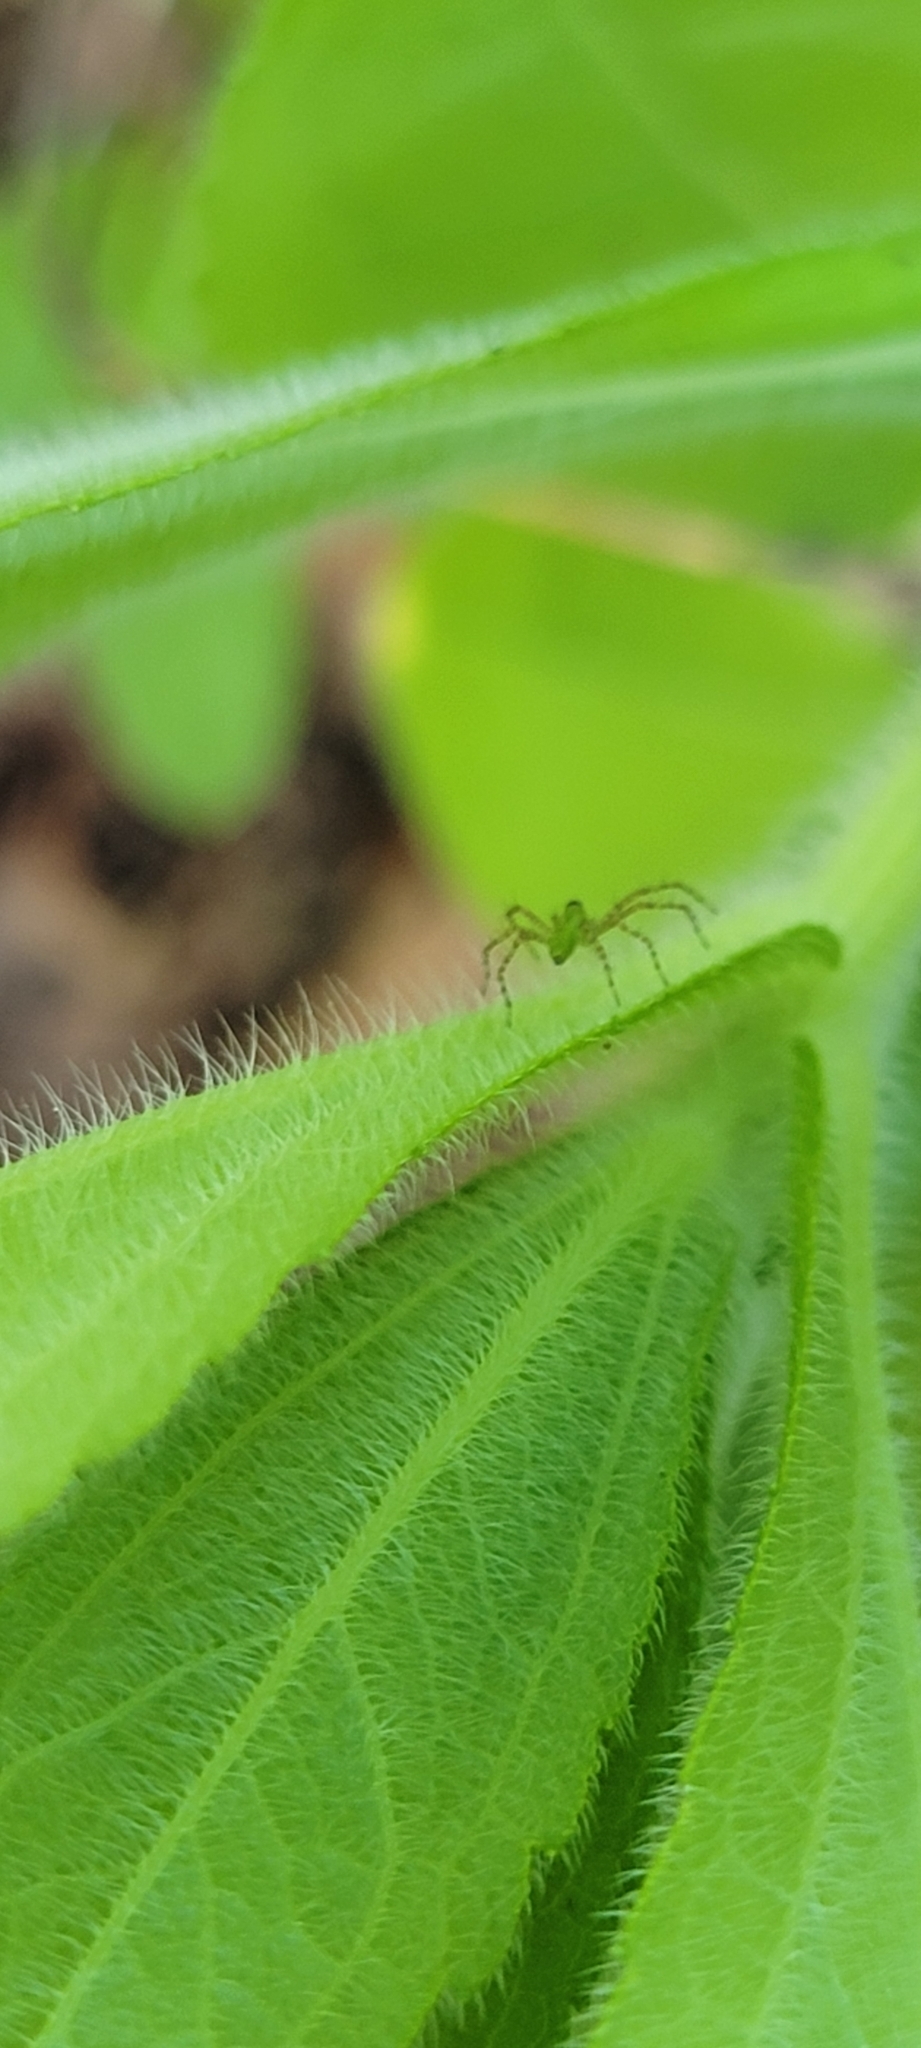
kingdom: Animalia
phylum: Arthropoda
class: Arachnida
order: Araneae
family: Oxyopidae
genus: Peucetia
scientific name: Peucetia viridans
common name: Lynx spiders
